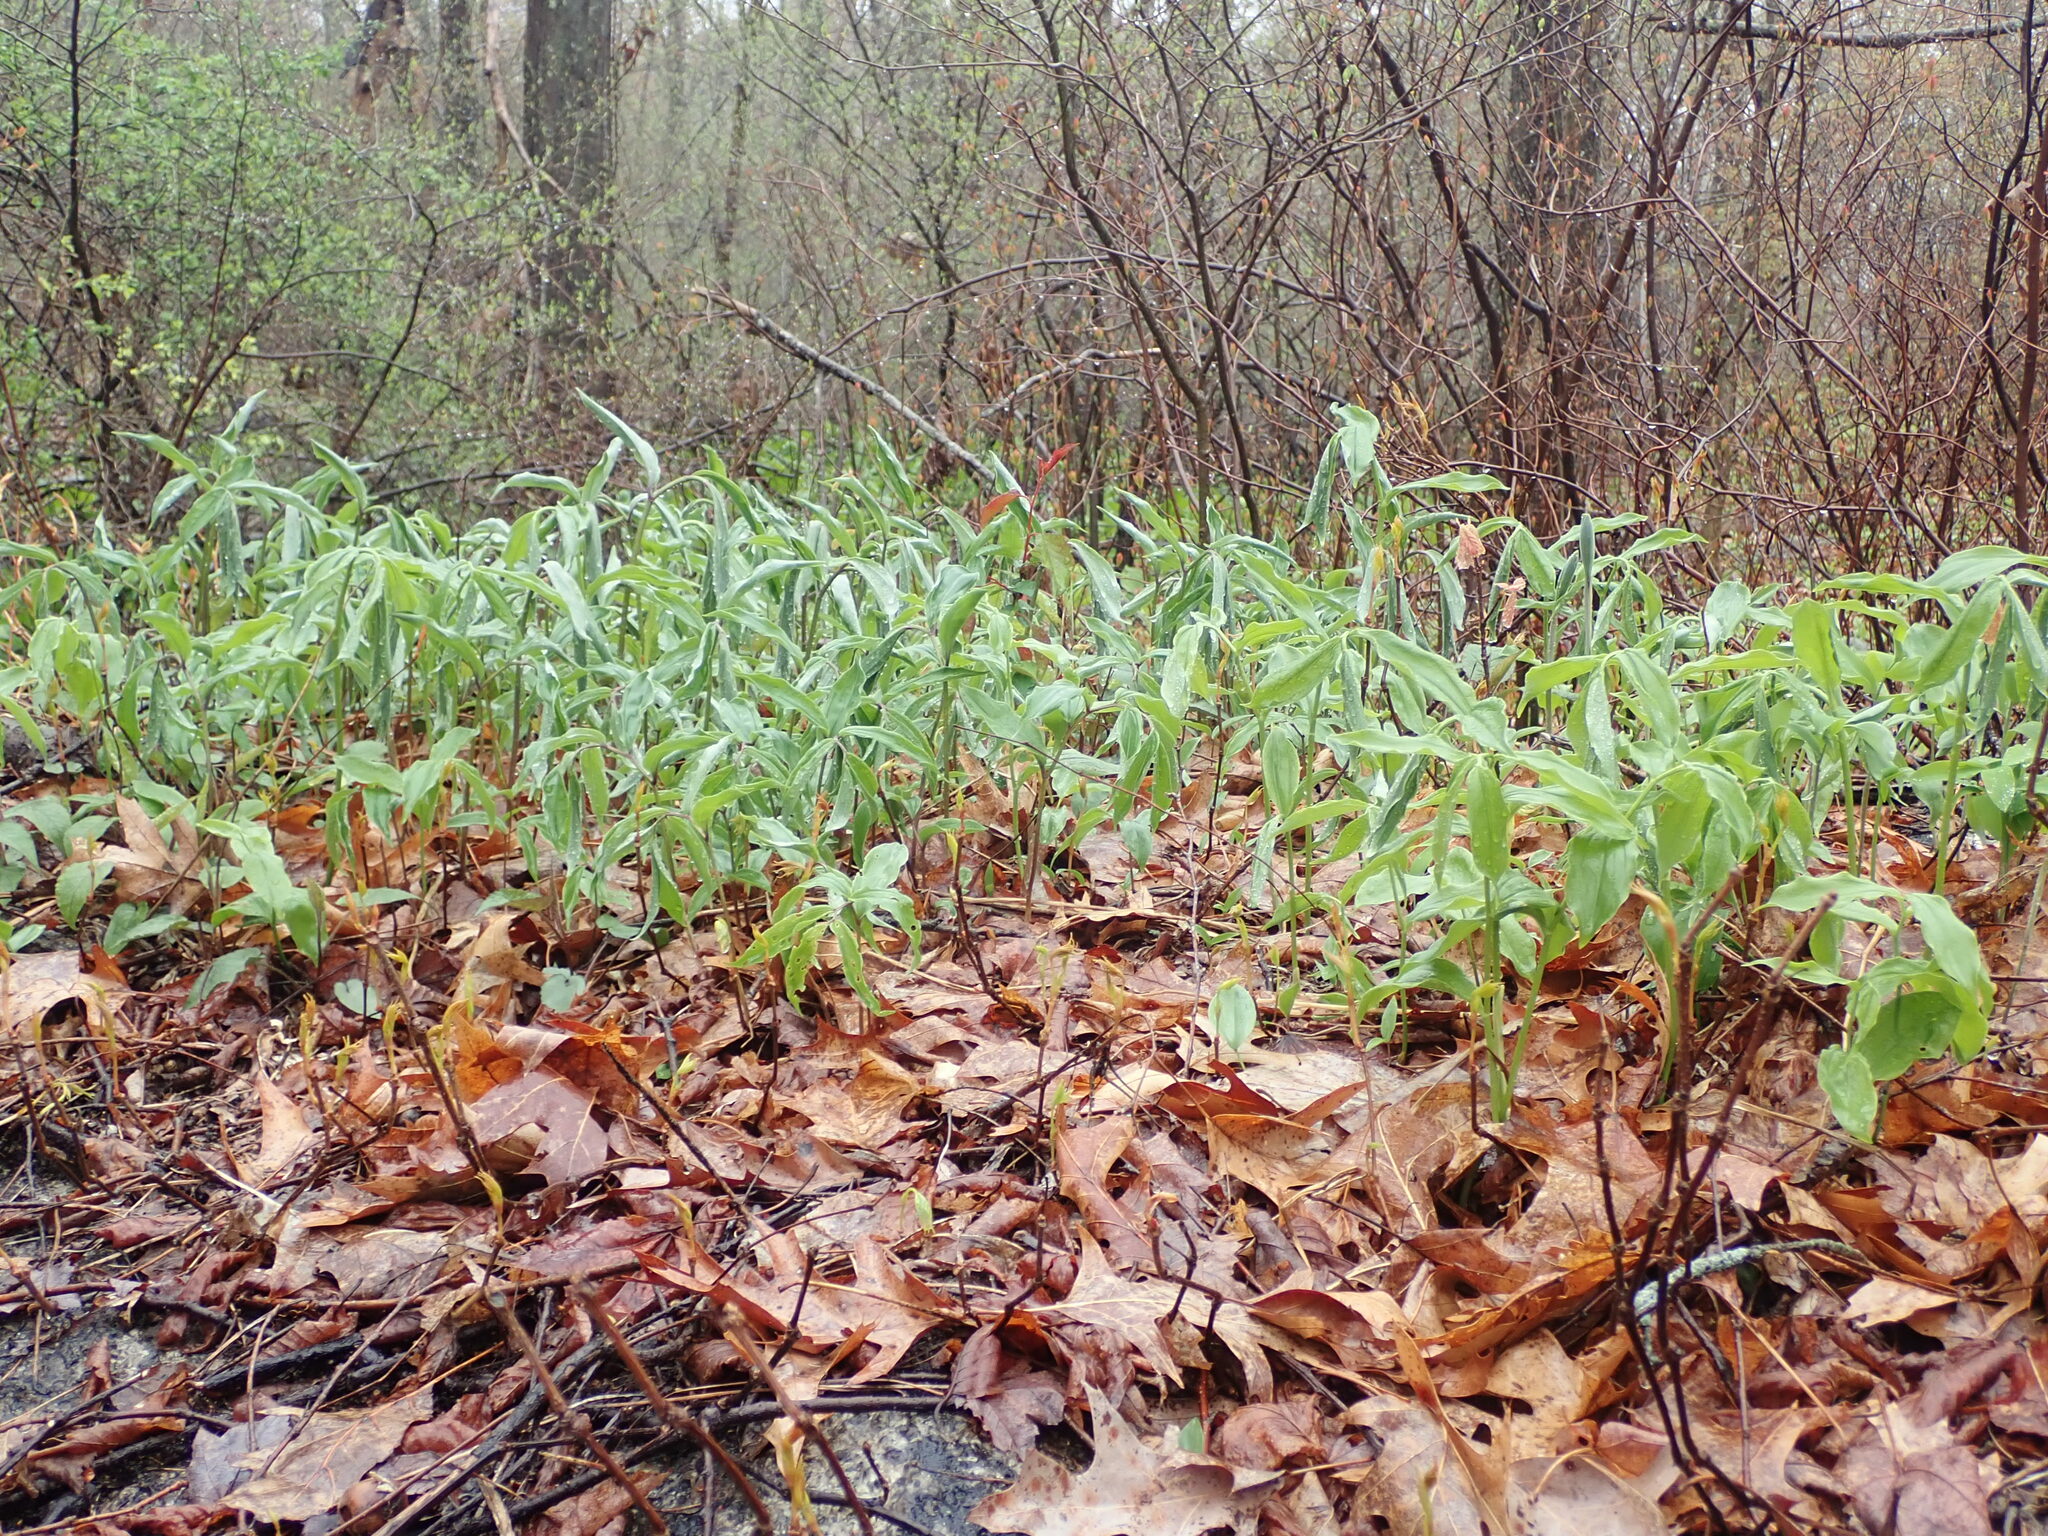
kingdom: Plantae
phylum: Tracheophyta
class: Liliopsida
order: Asparagales
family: Asparagaceae
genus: Maianthemum
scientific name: Maianthemum racemosum
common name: False spikenard
